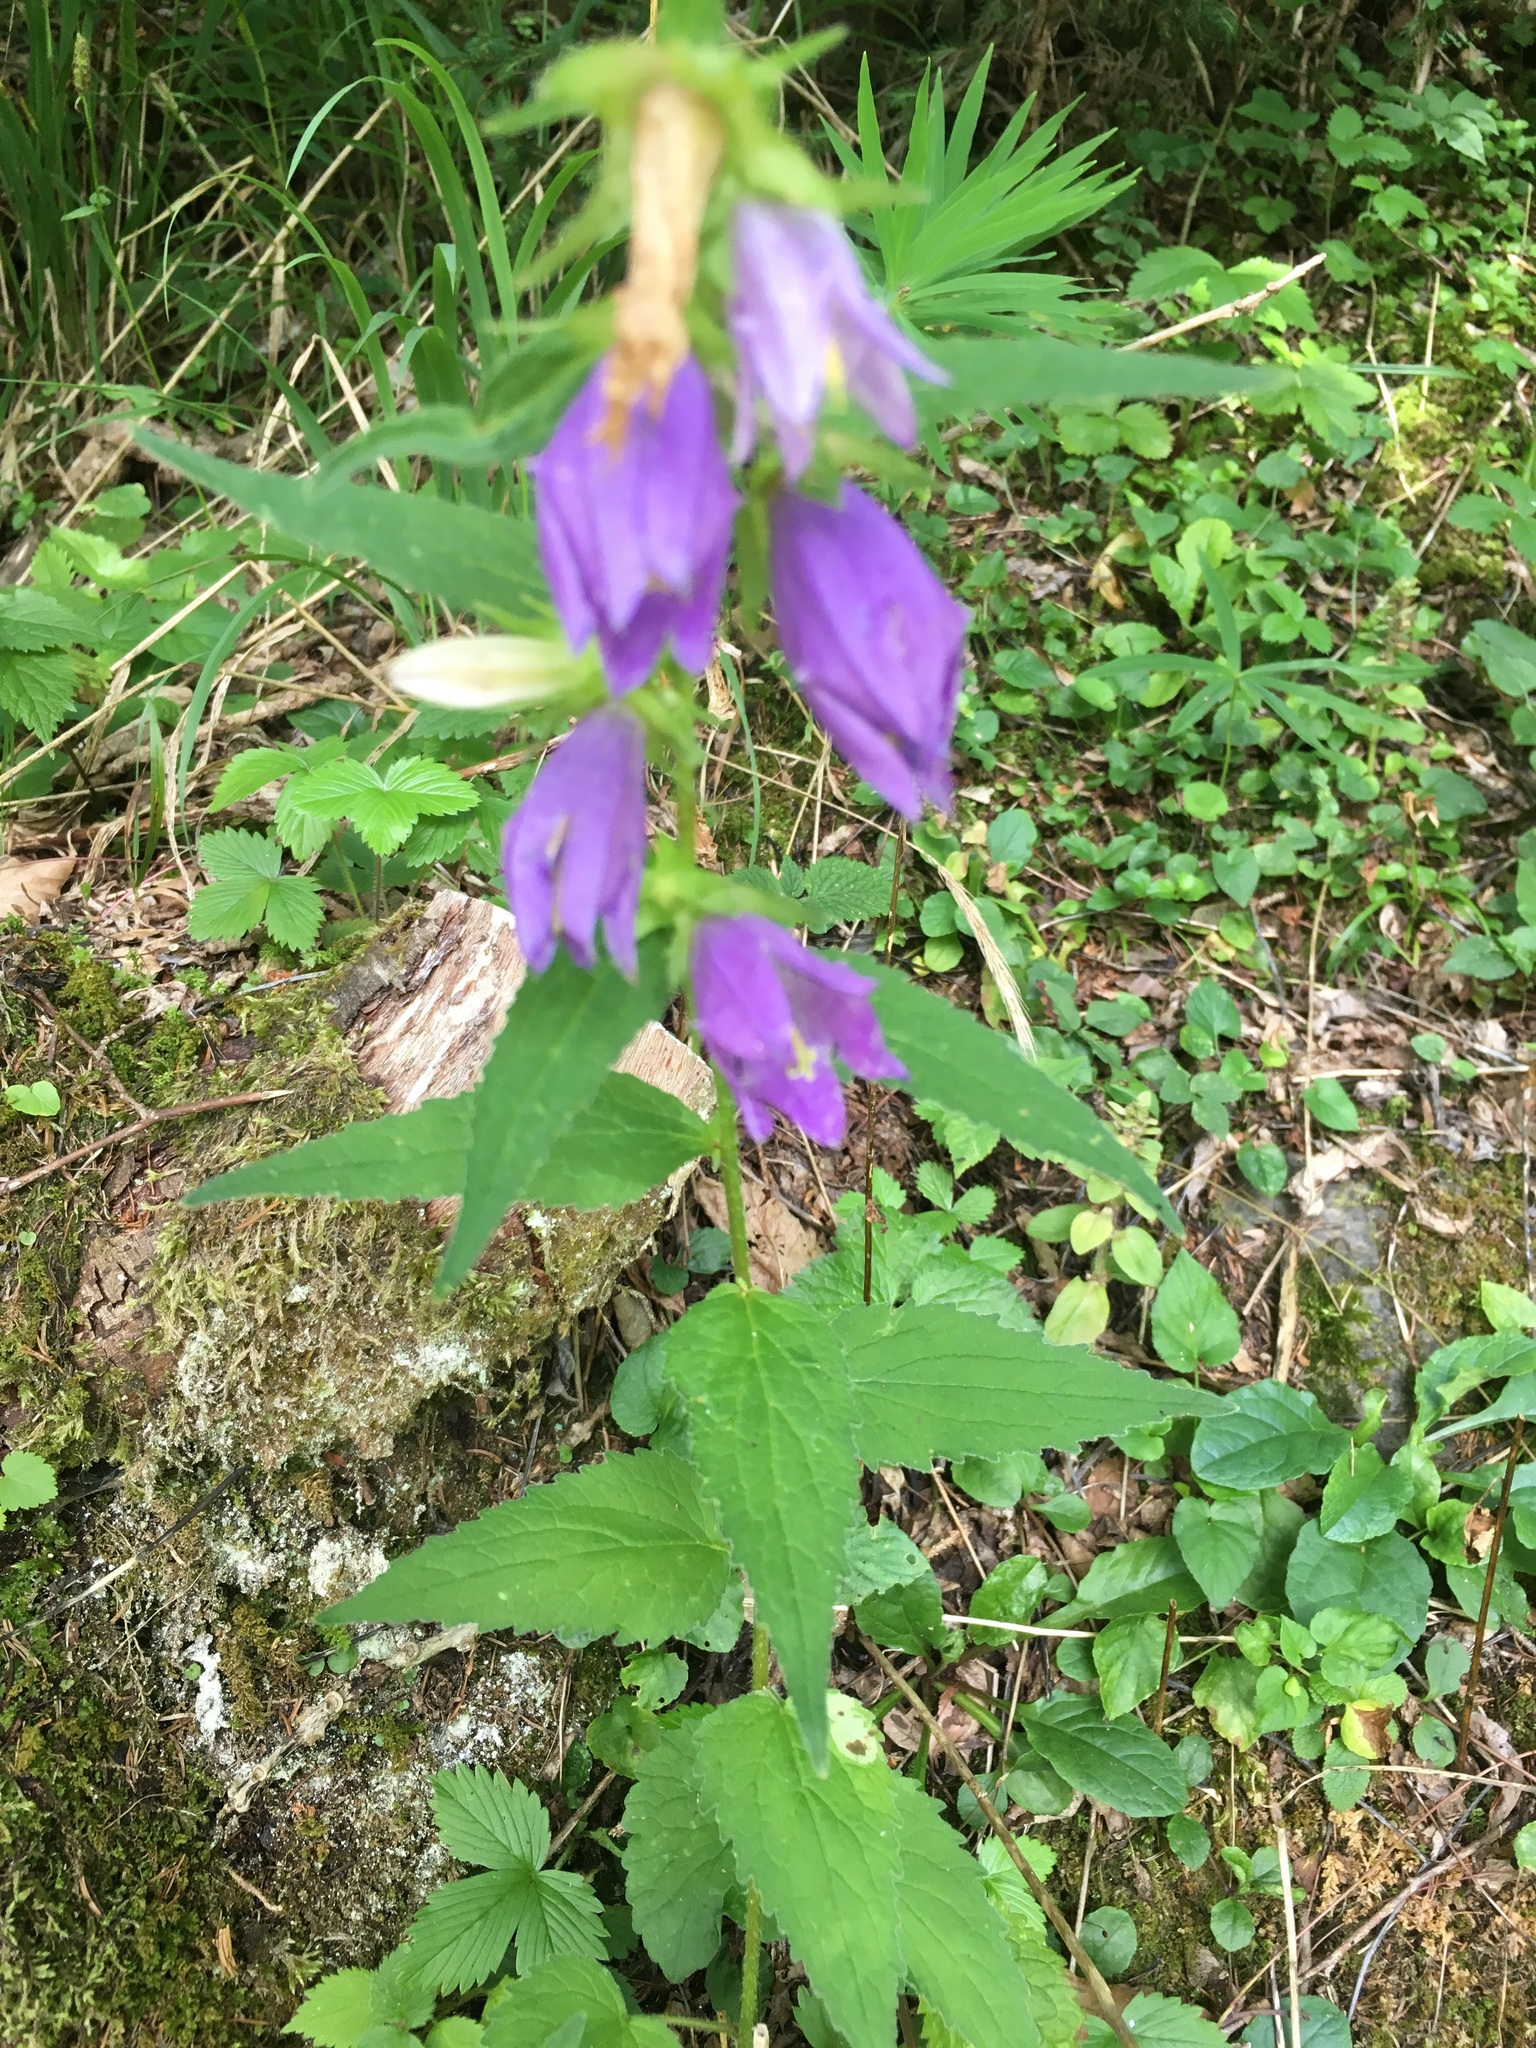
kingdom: Plantae
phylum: Tracheophyta
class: Magnoliopsida
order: Asterales
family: Campanulaceae
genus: Campanula
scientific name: Campanula trachelium
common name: Nettle-leaved bellflower
